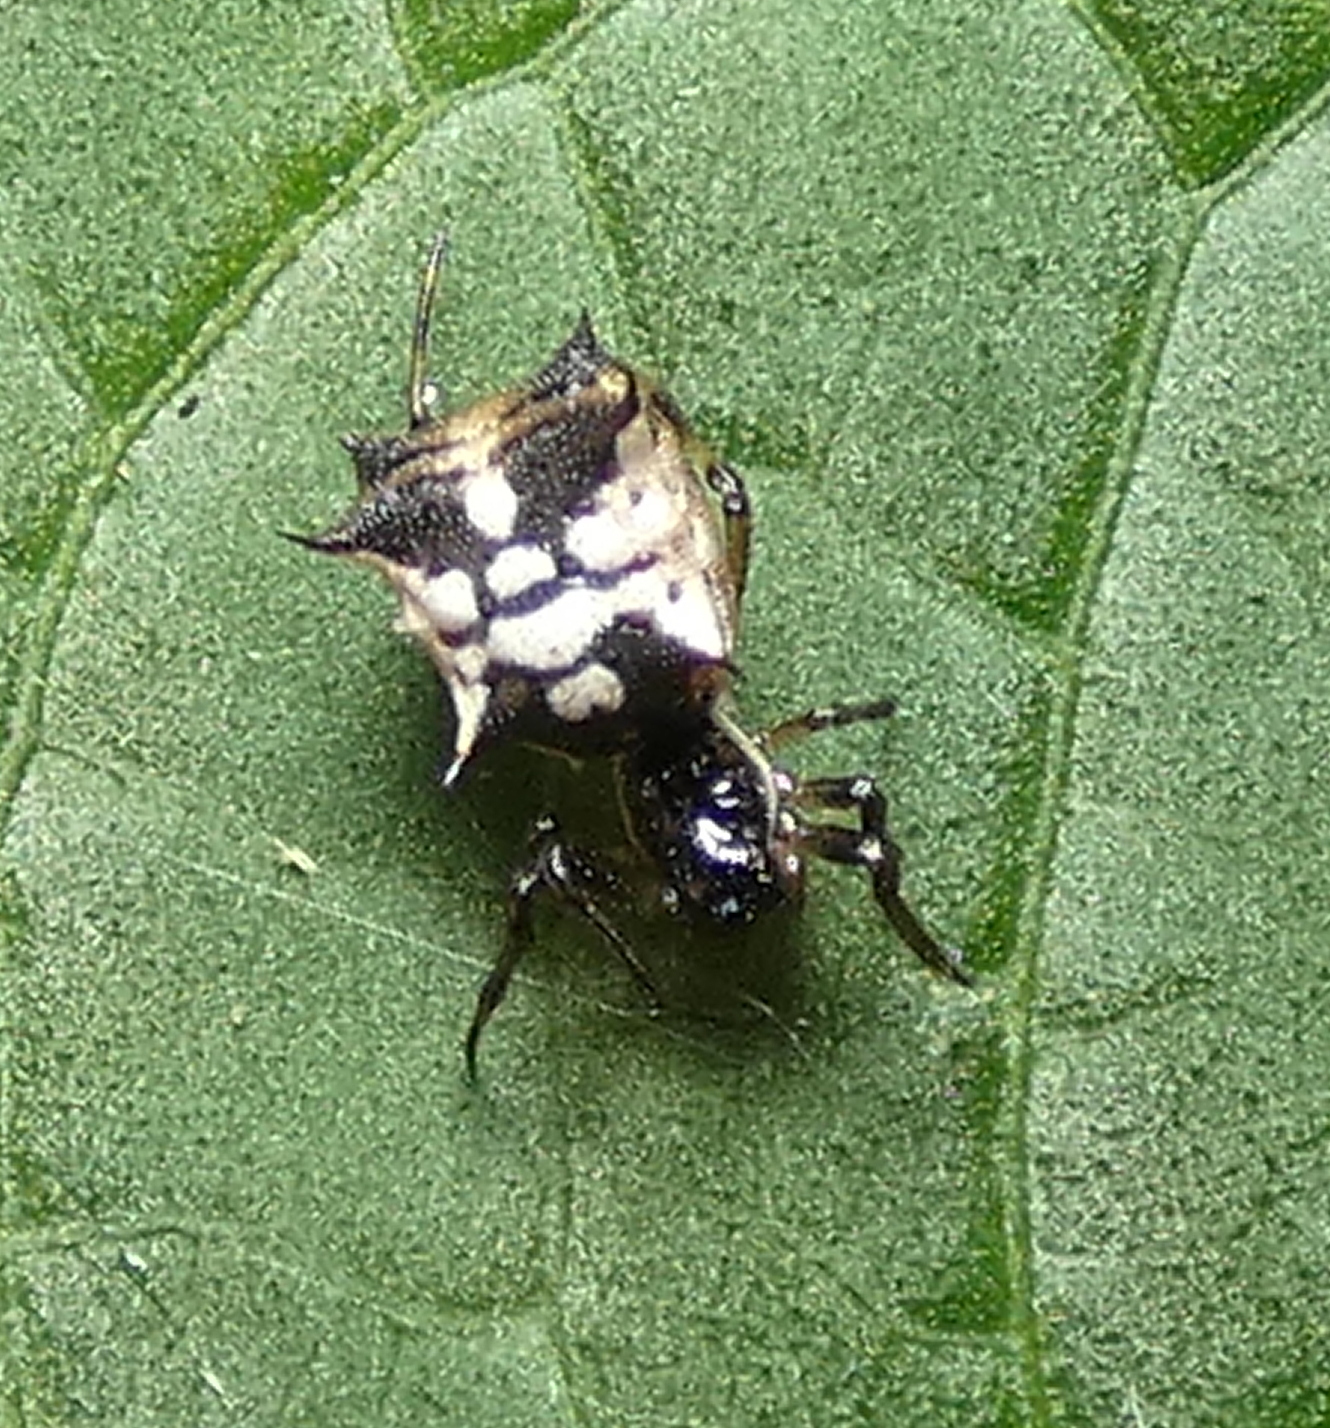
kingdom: Animalia
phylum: Arthropoda
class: Arachnida
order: Araneae
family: Araneidae
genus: Micrathena
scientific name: Micrathena picta
